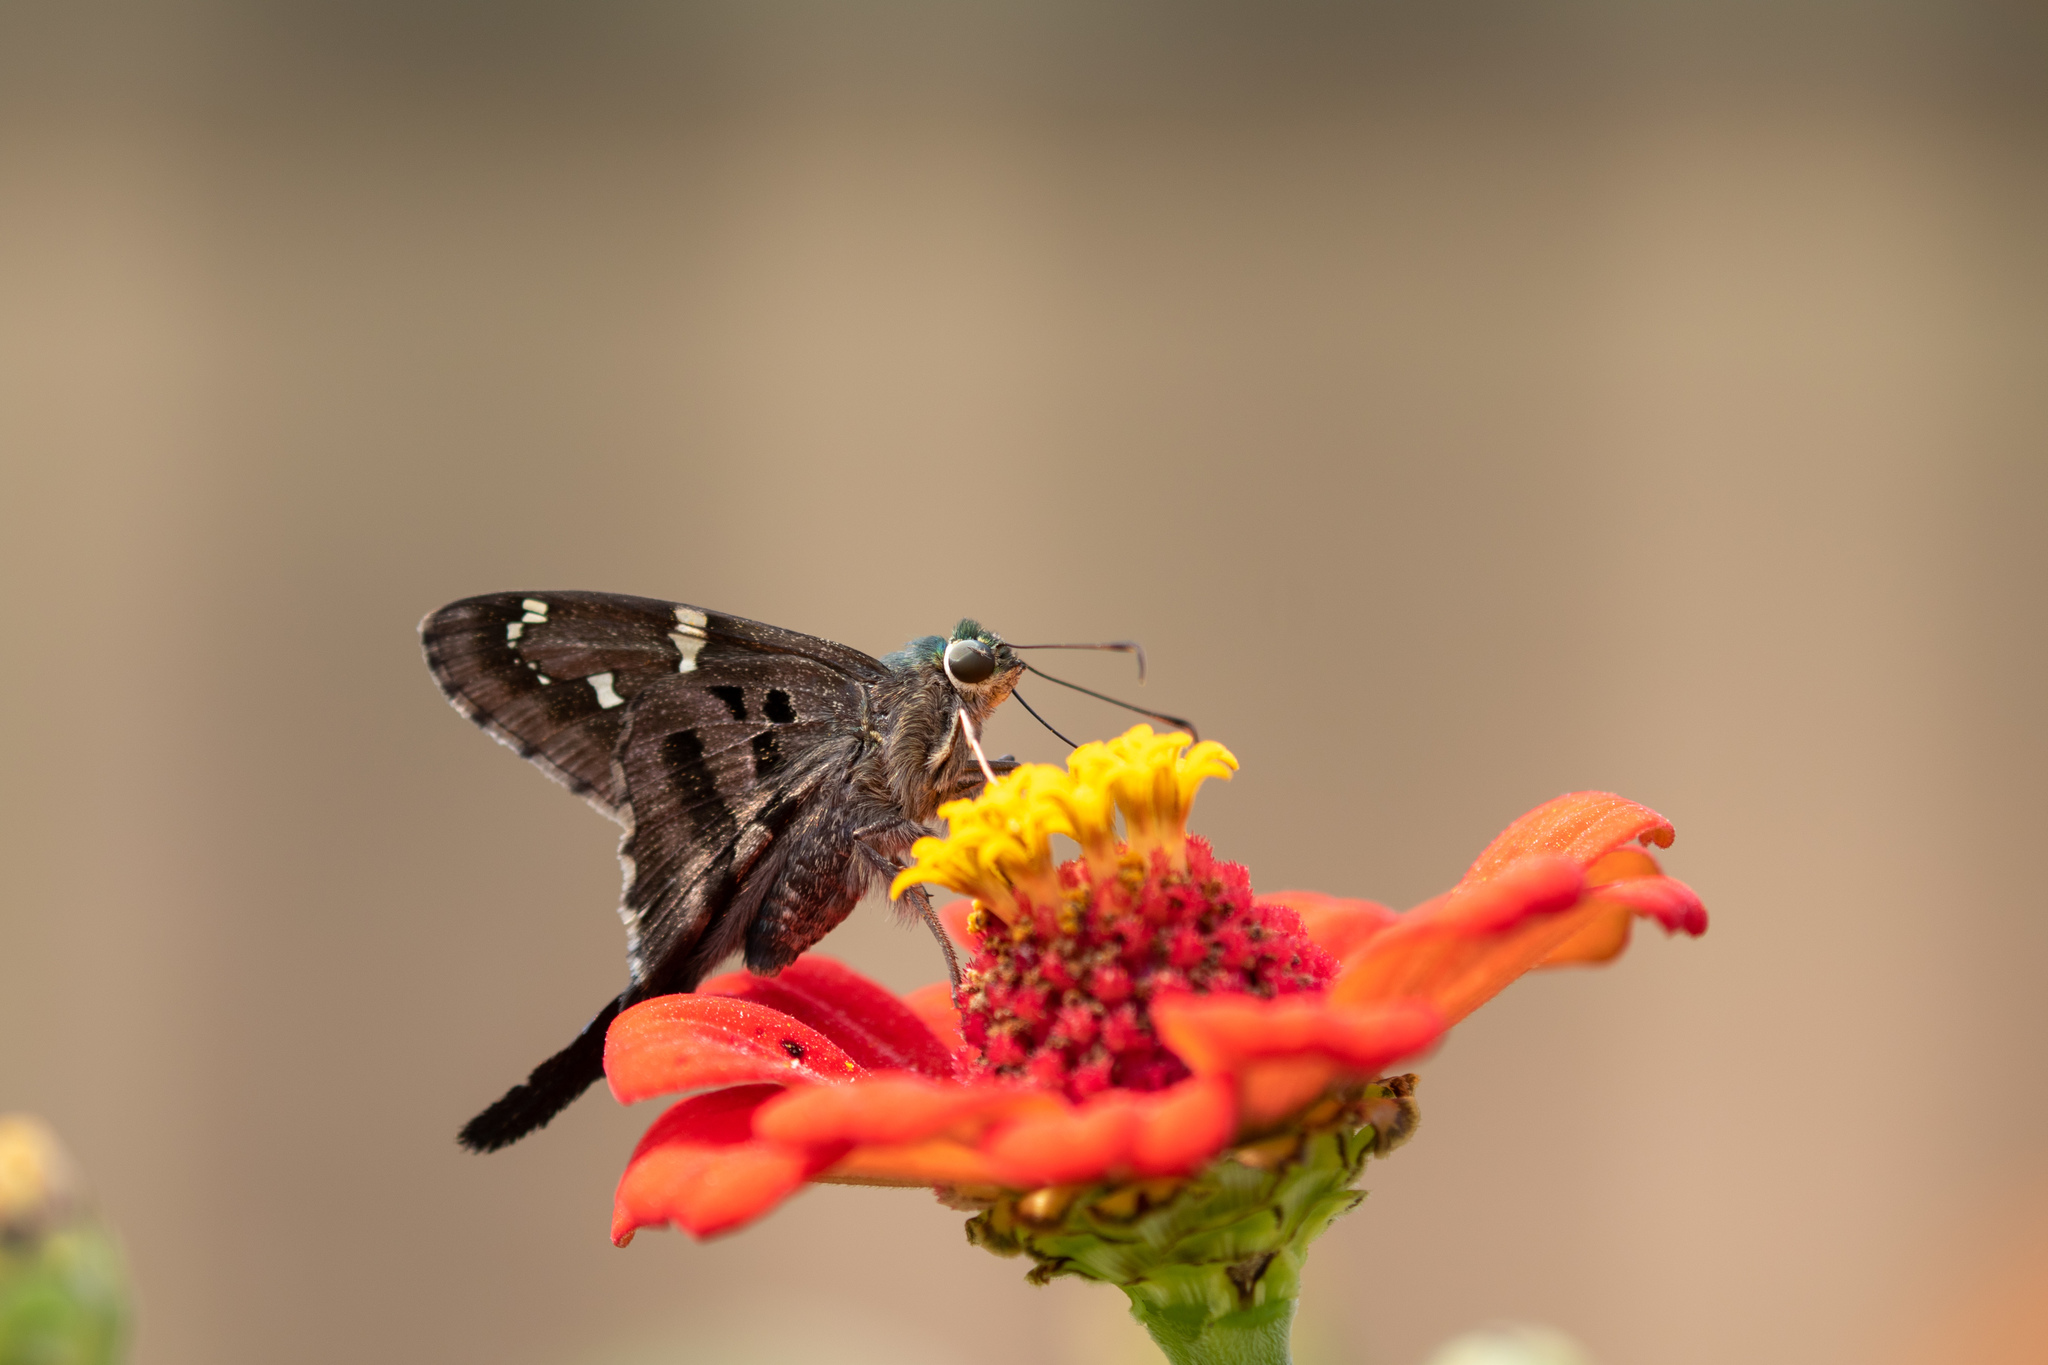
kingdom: Animalia
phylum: Arthropoda
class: Insecta
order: Lepidoptera
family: Hesperiidae
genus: Urbanus
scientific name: Urbanus proteus
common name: Long-tailed skipper
